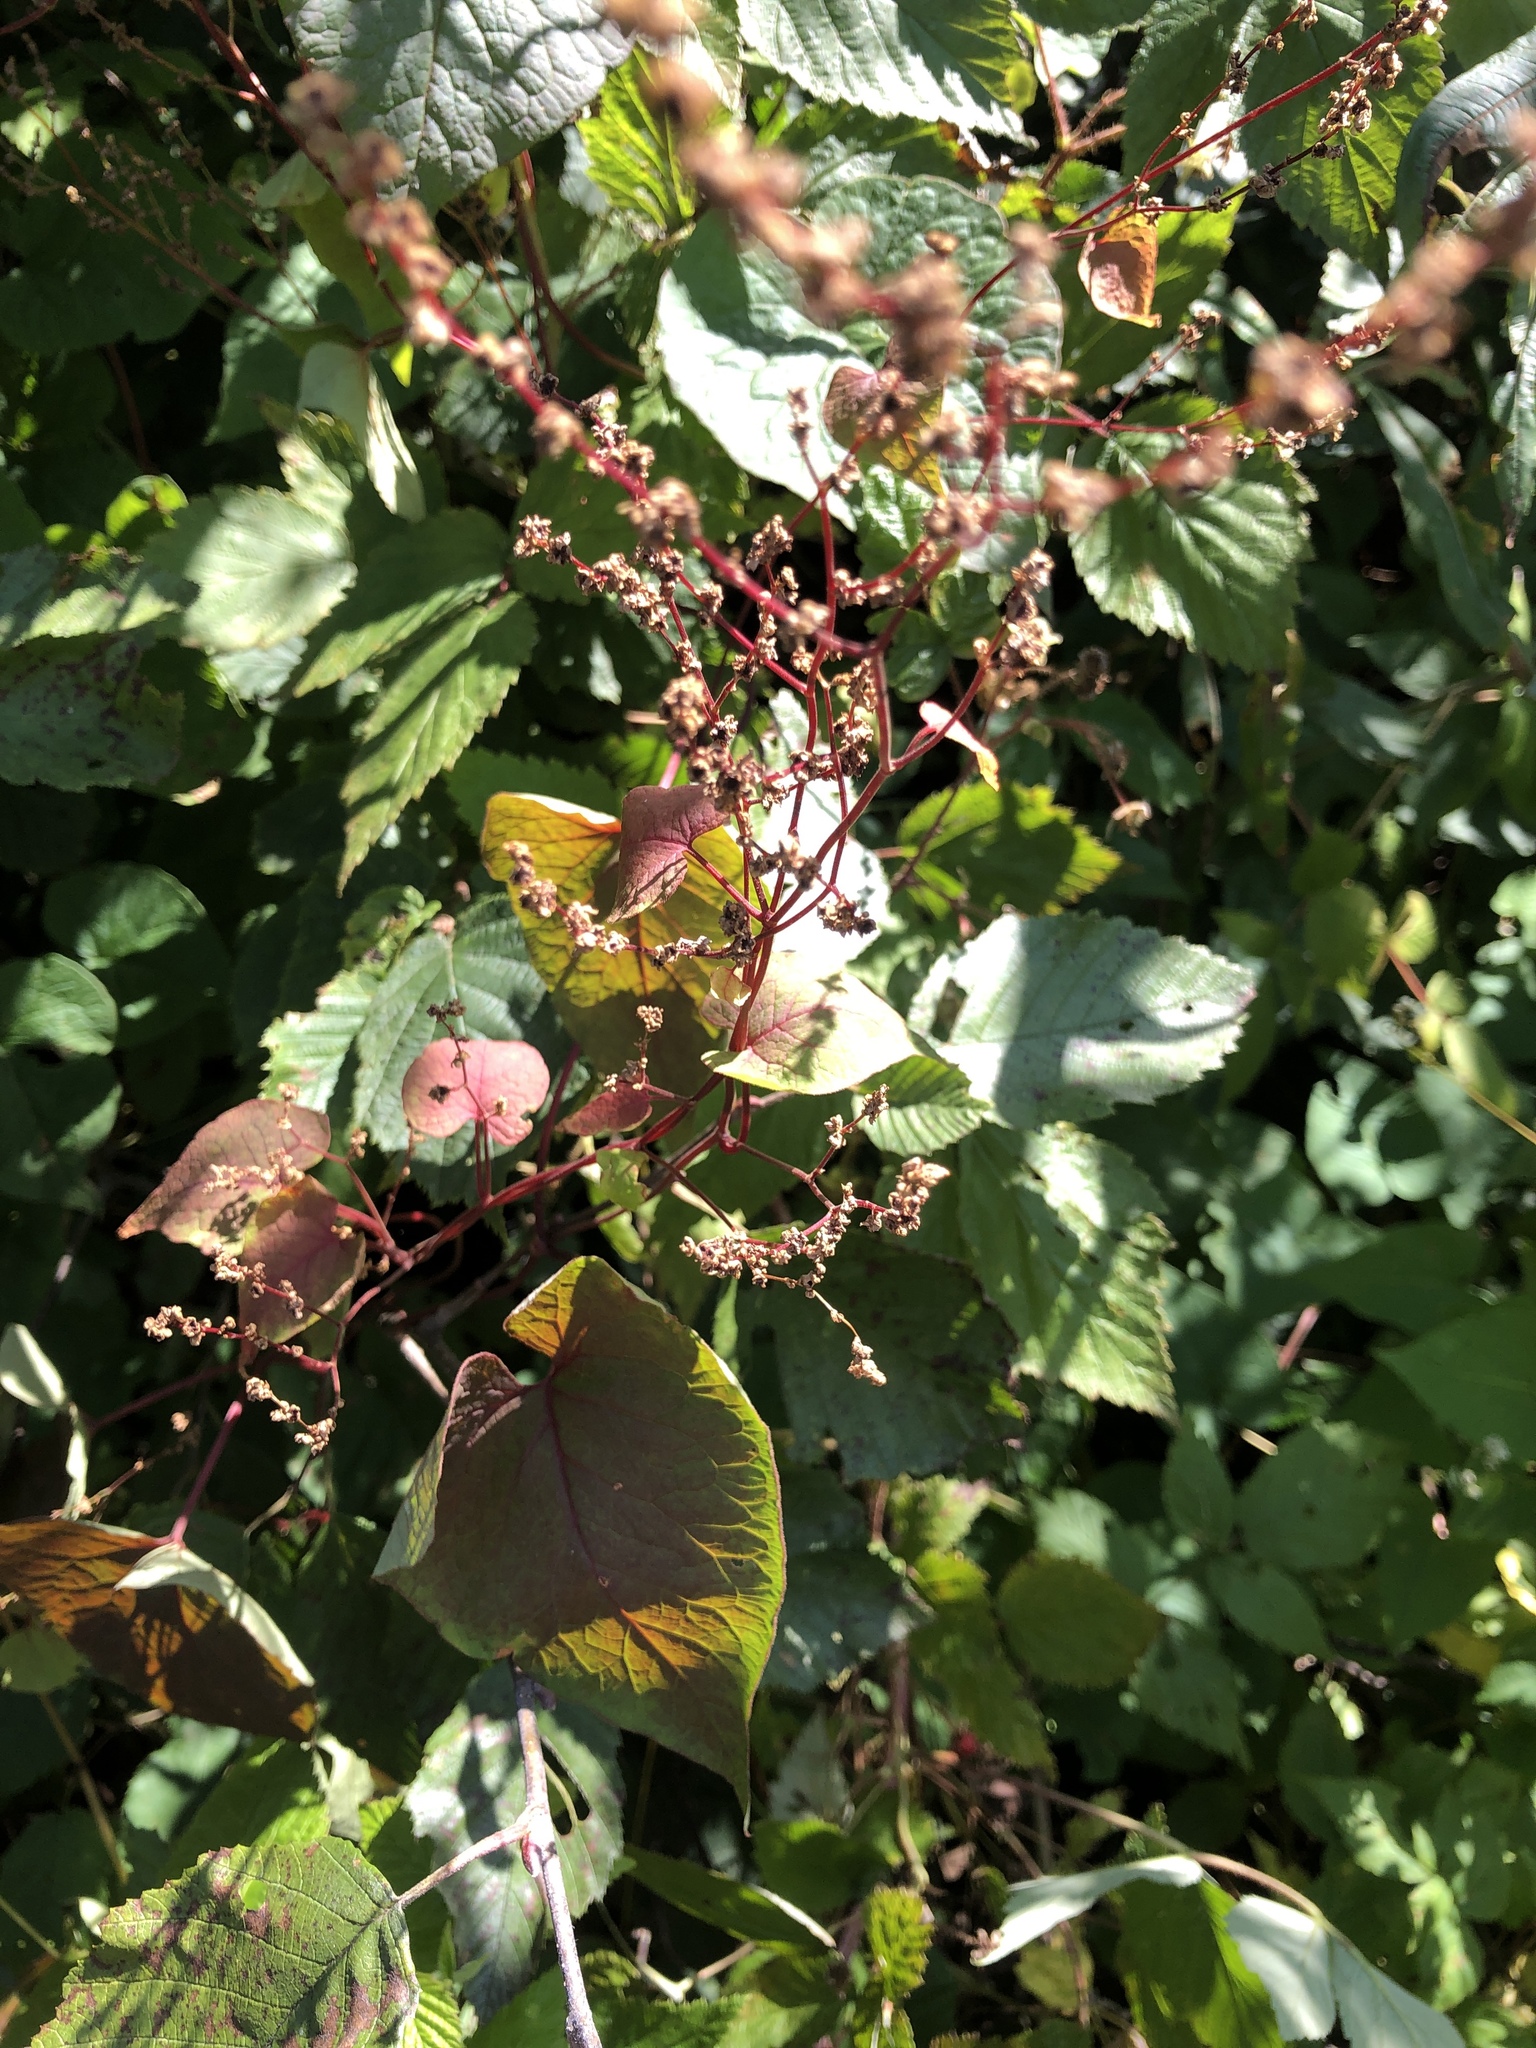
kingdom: Plantae
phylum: Tracheophyta
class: Magnoliopsida
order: Caryophyllales
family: Polygonaceae
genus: Parogonum
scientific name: Parogonum ciliinode
